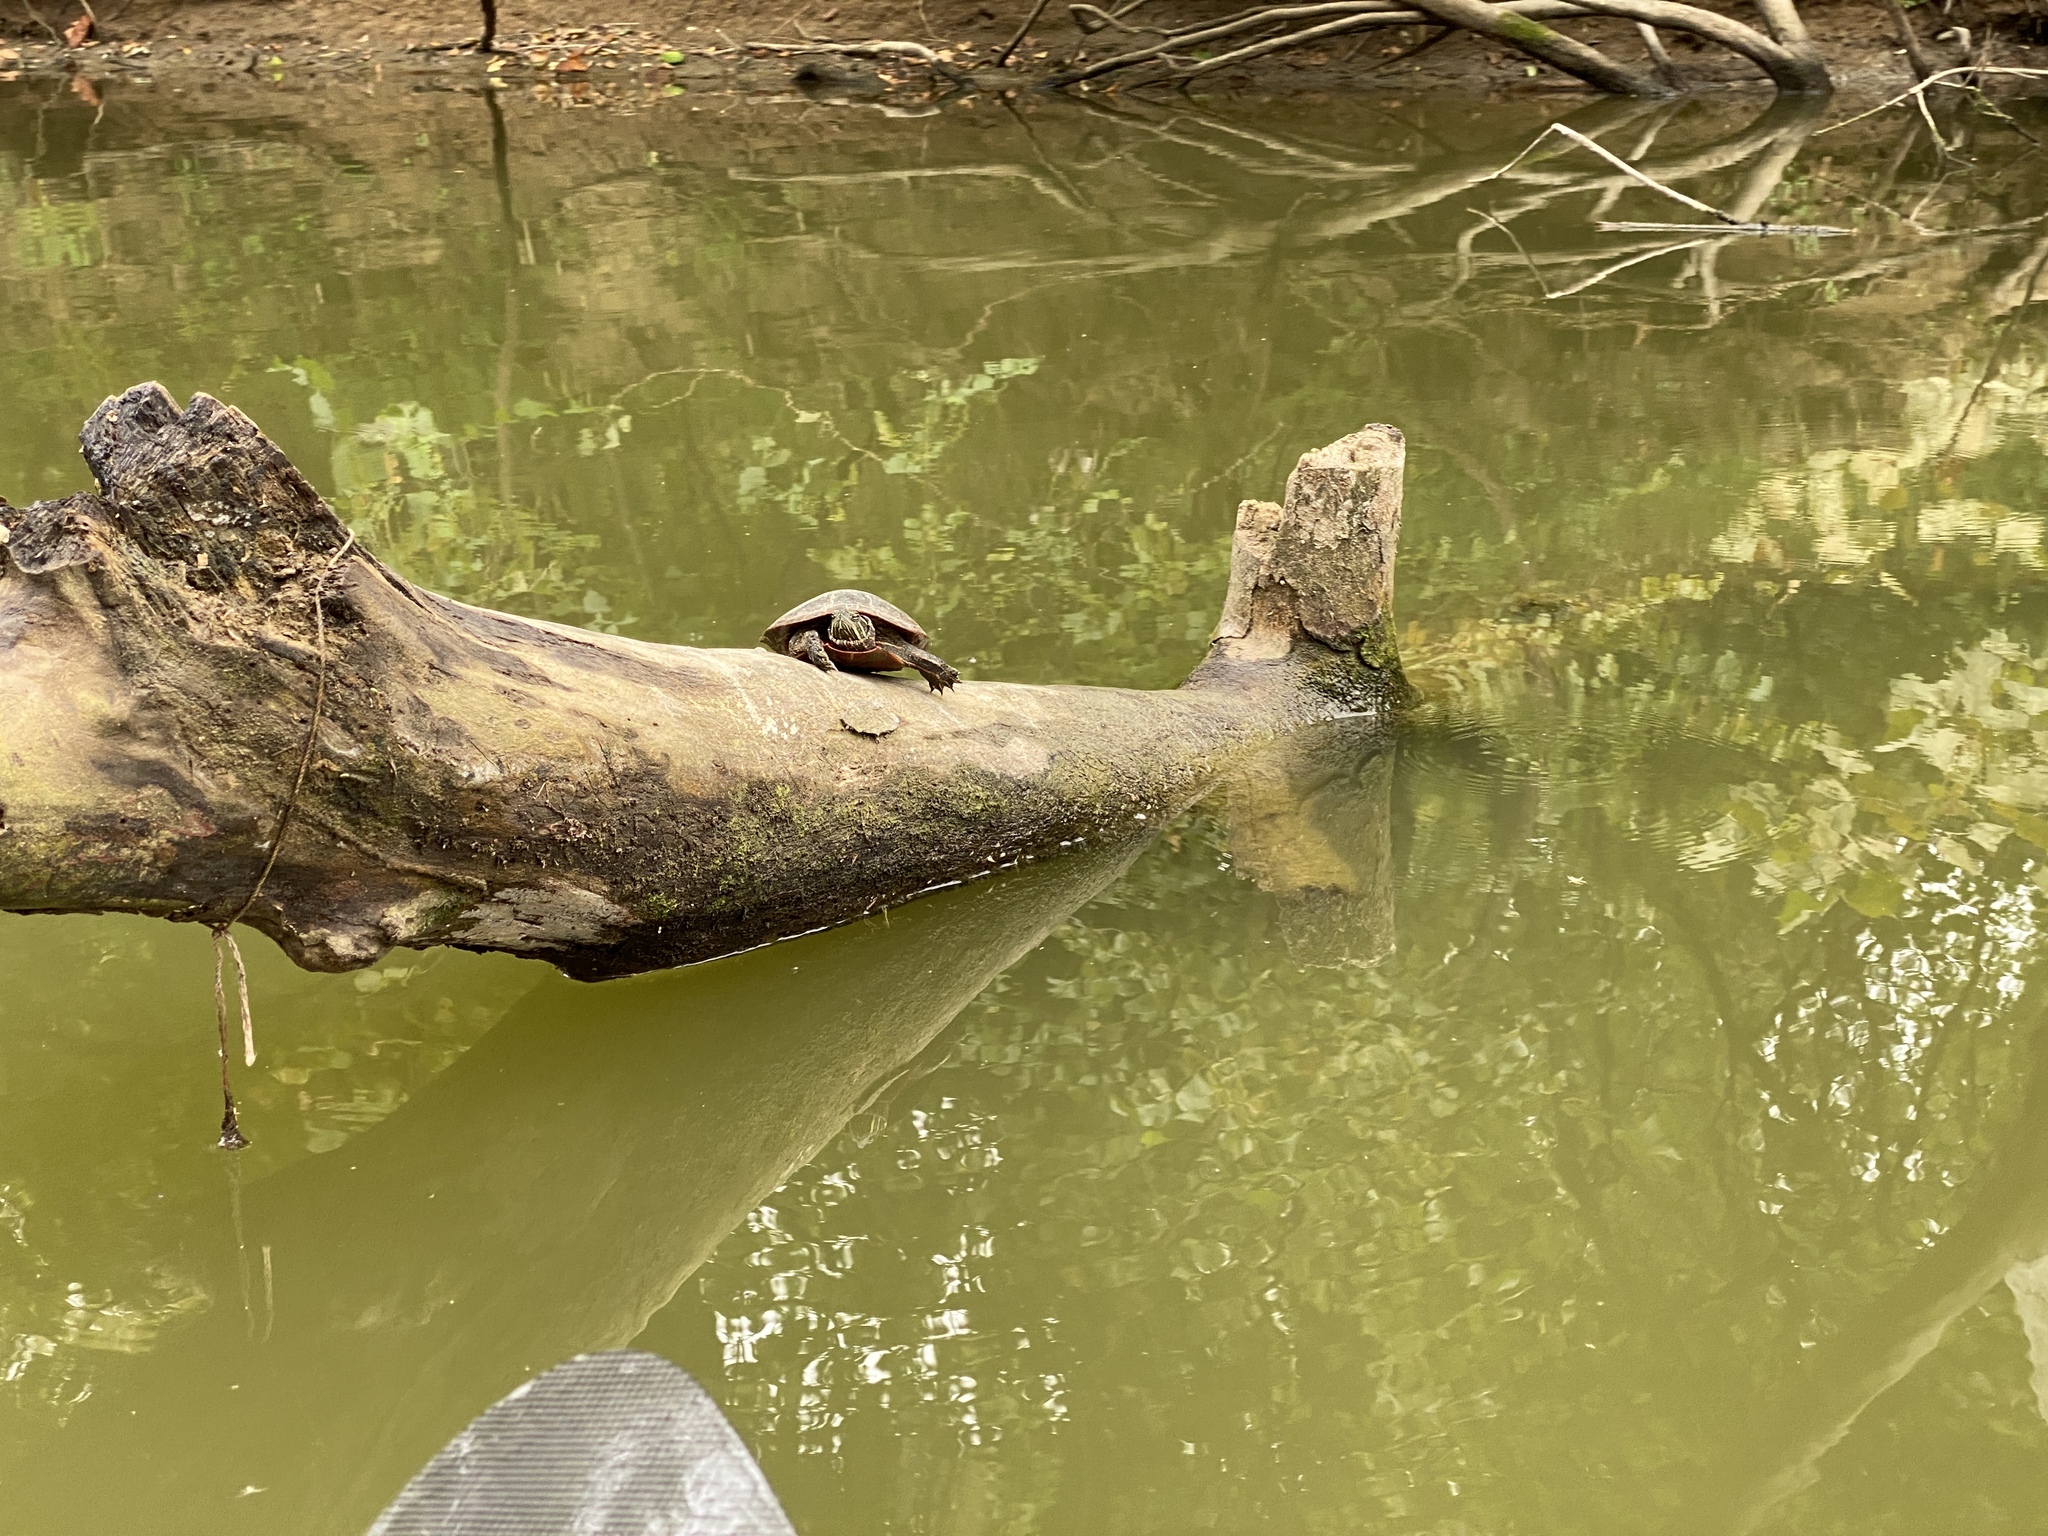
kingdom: Animalia
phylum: Chordata
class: Testudines
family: Emydidae
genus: Chrysemys
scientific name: Chrysemys picta
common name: Painted turtle
